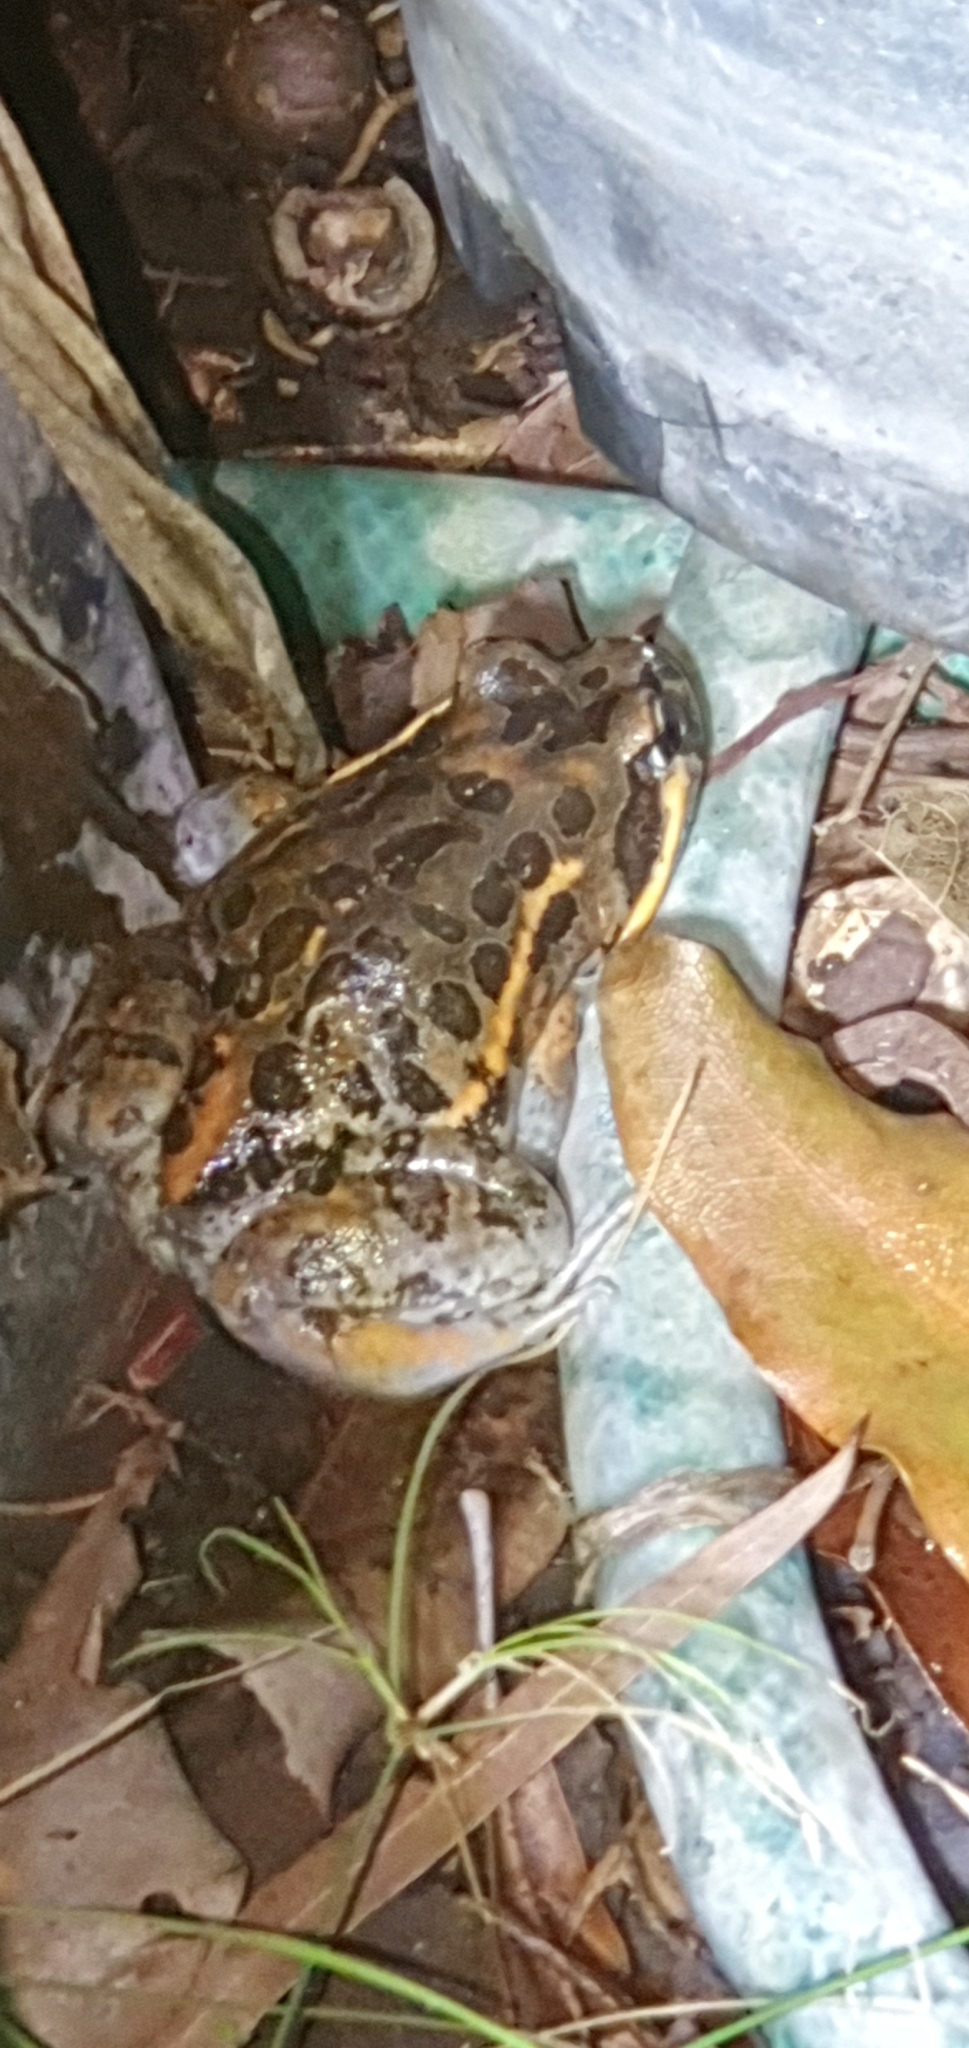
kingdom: Animalia
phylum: Chordata
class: Amphibia
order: Anura
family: Limnodynastidae
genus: Limnodynastes
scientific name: Limnodynastes salmini
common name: Salmon-striped frog
